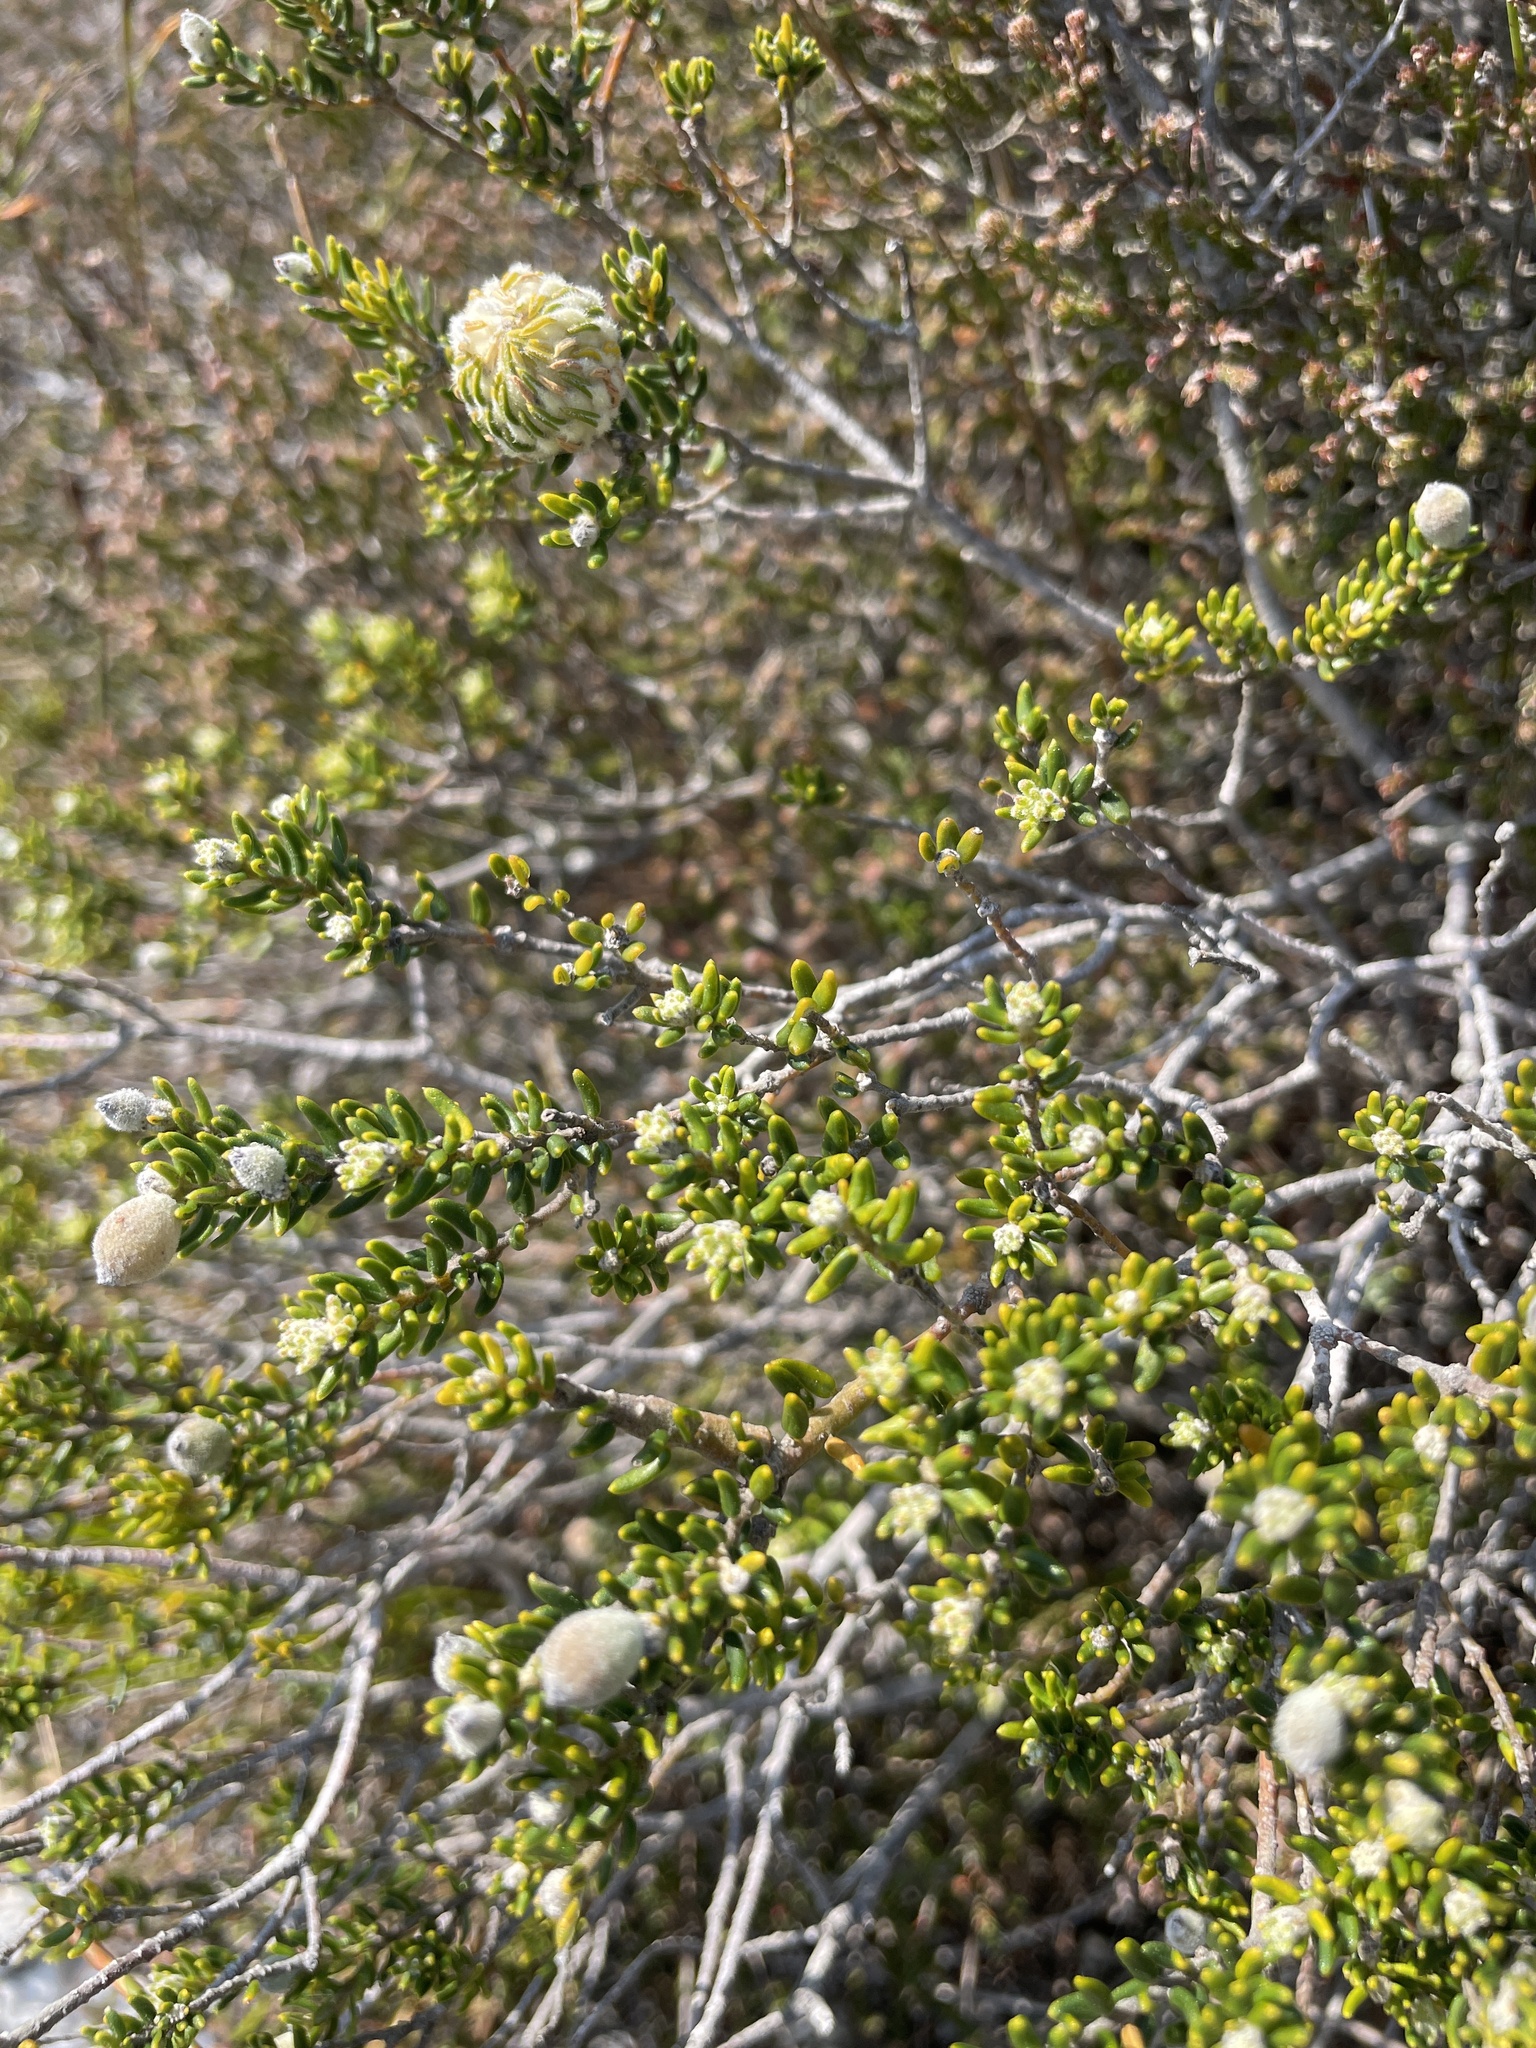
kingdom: Plantae
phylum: Tracheophyta
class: Magnoliopsida
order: Rosales
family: Rhamnaceae
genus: Phylica
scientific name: Phylica lasiocarpa
